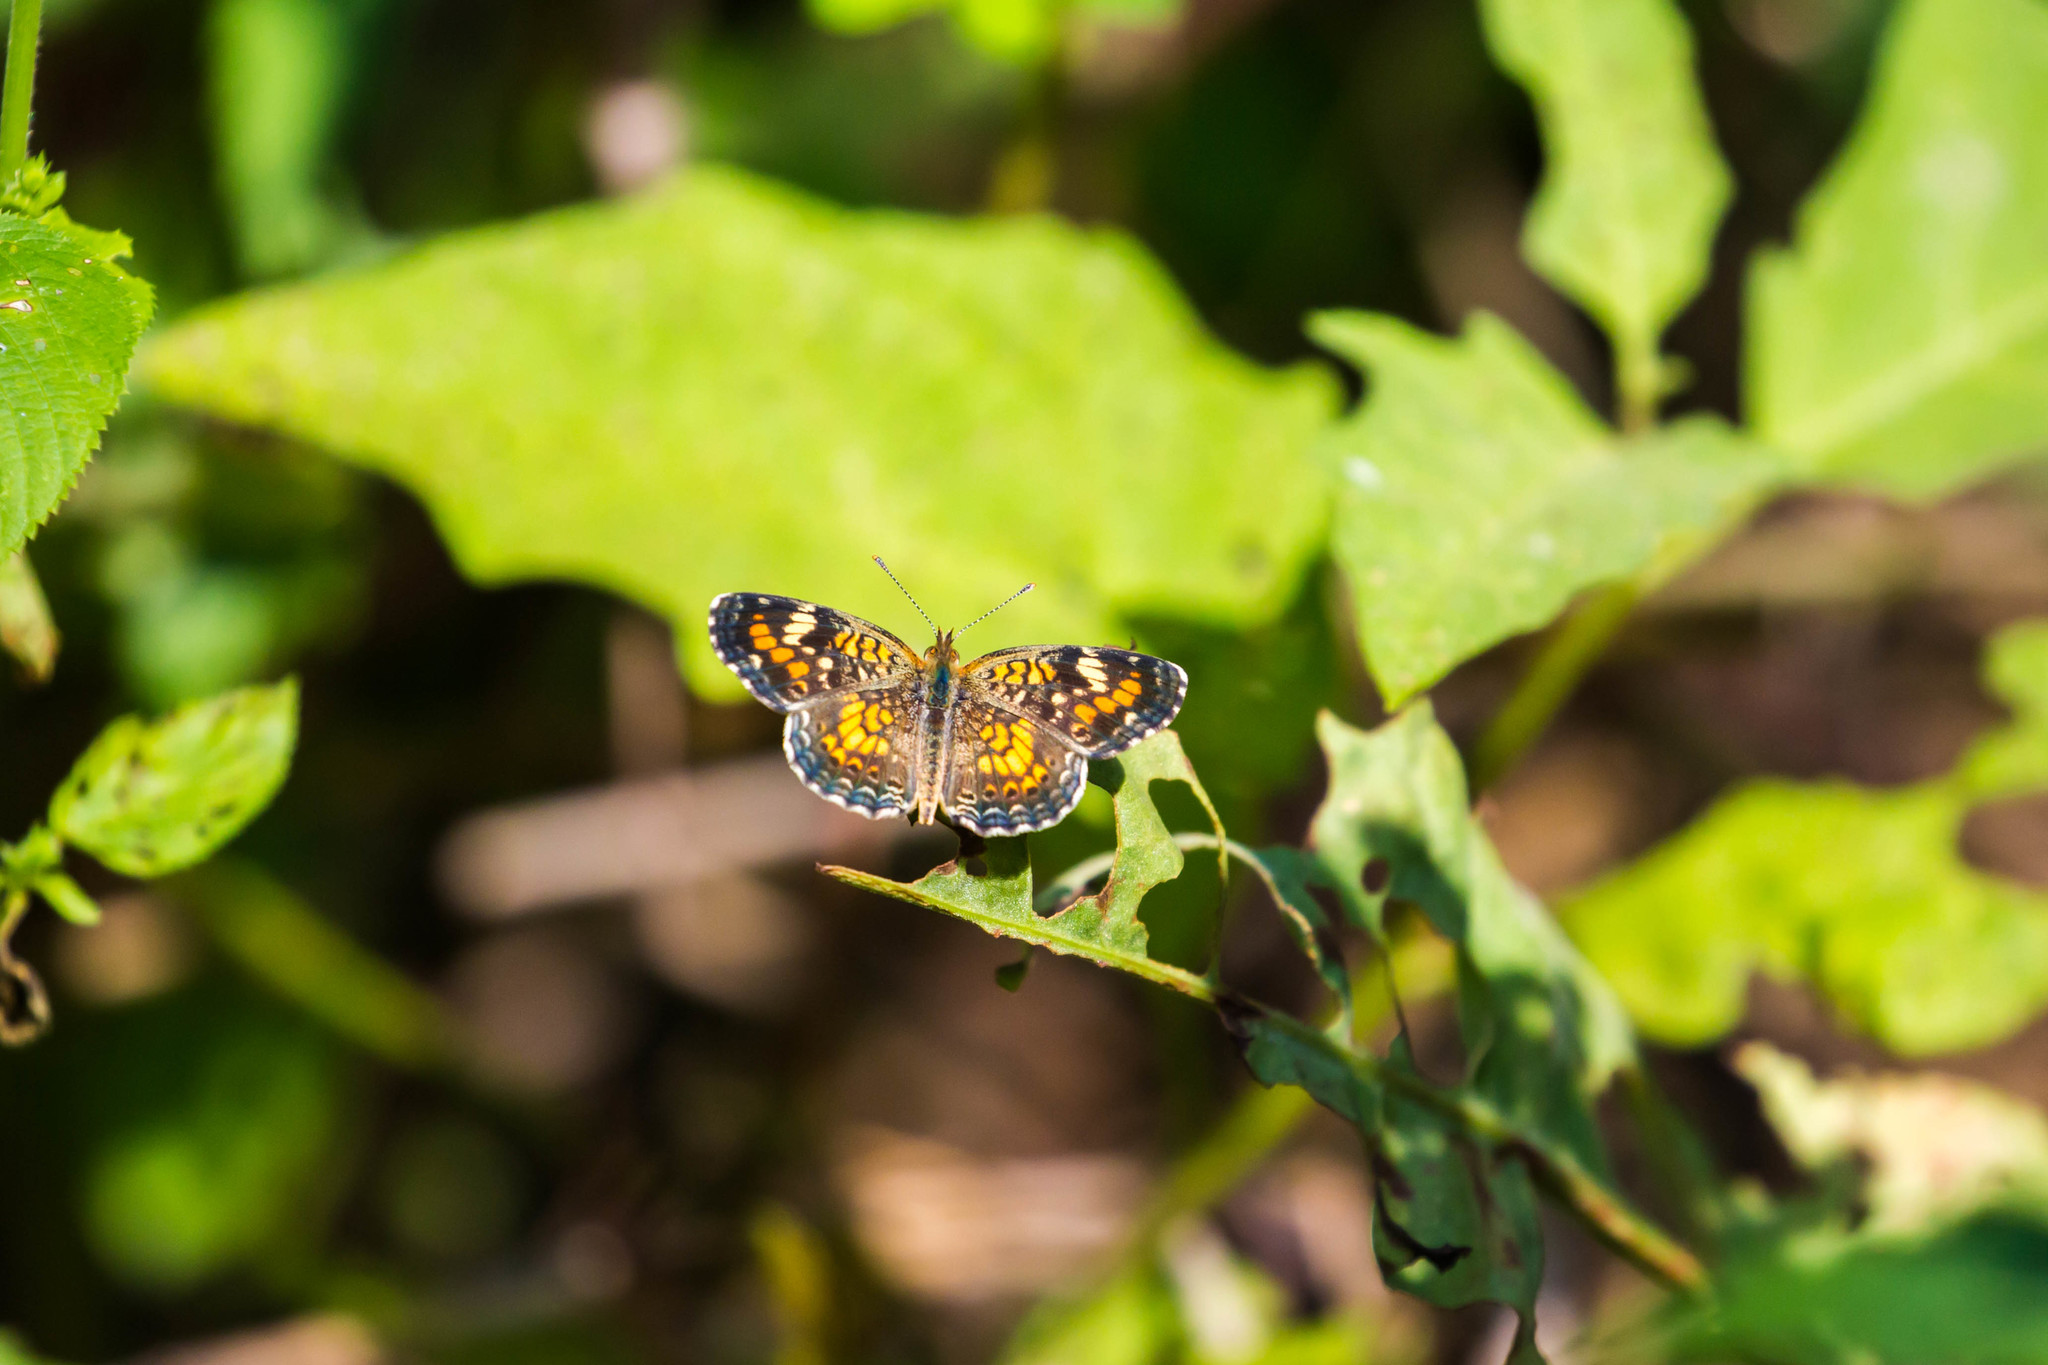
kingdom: Animalia
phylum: Arthropoda
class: Insecta
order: Lepidoptera
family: Nymphalidae
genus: Phyciodes
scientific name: Phyciodes phaon
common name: Phaon crescent
